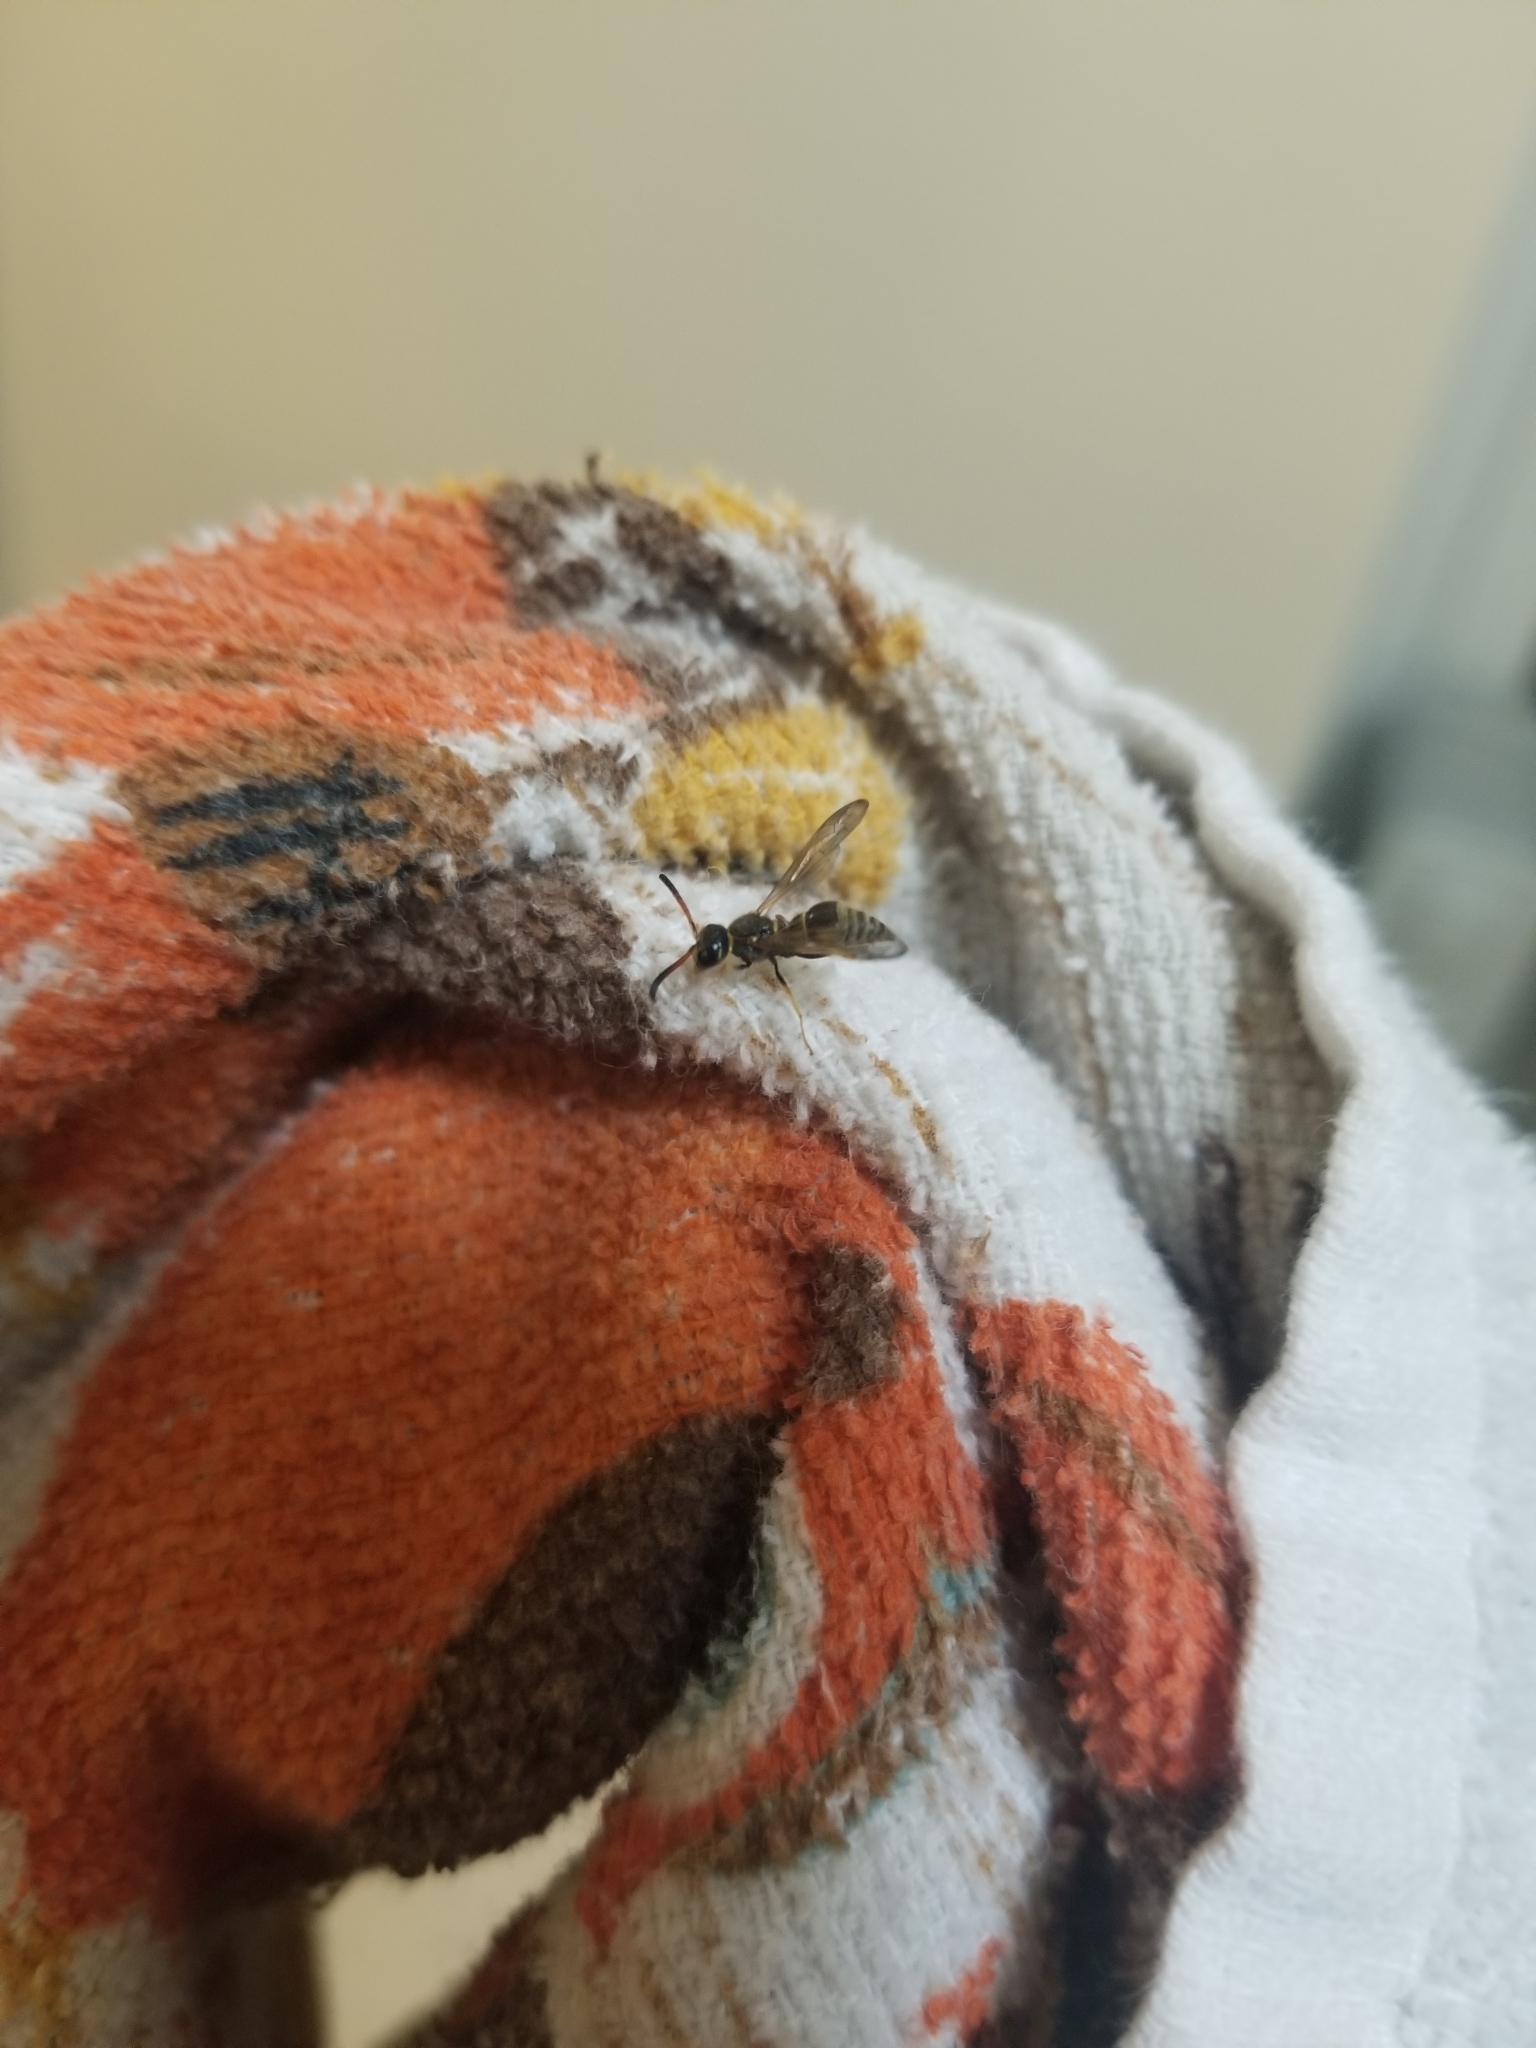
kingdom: Animalia
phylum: Arthropoda
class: Insecta
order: Hymenoptera
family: Vespidae
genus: Ancistrocerus
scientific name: Ancistrocerus
